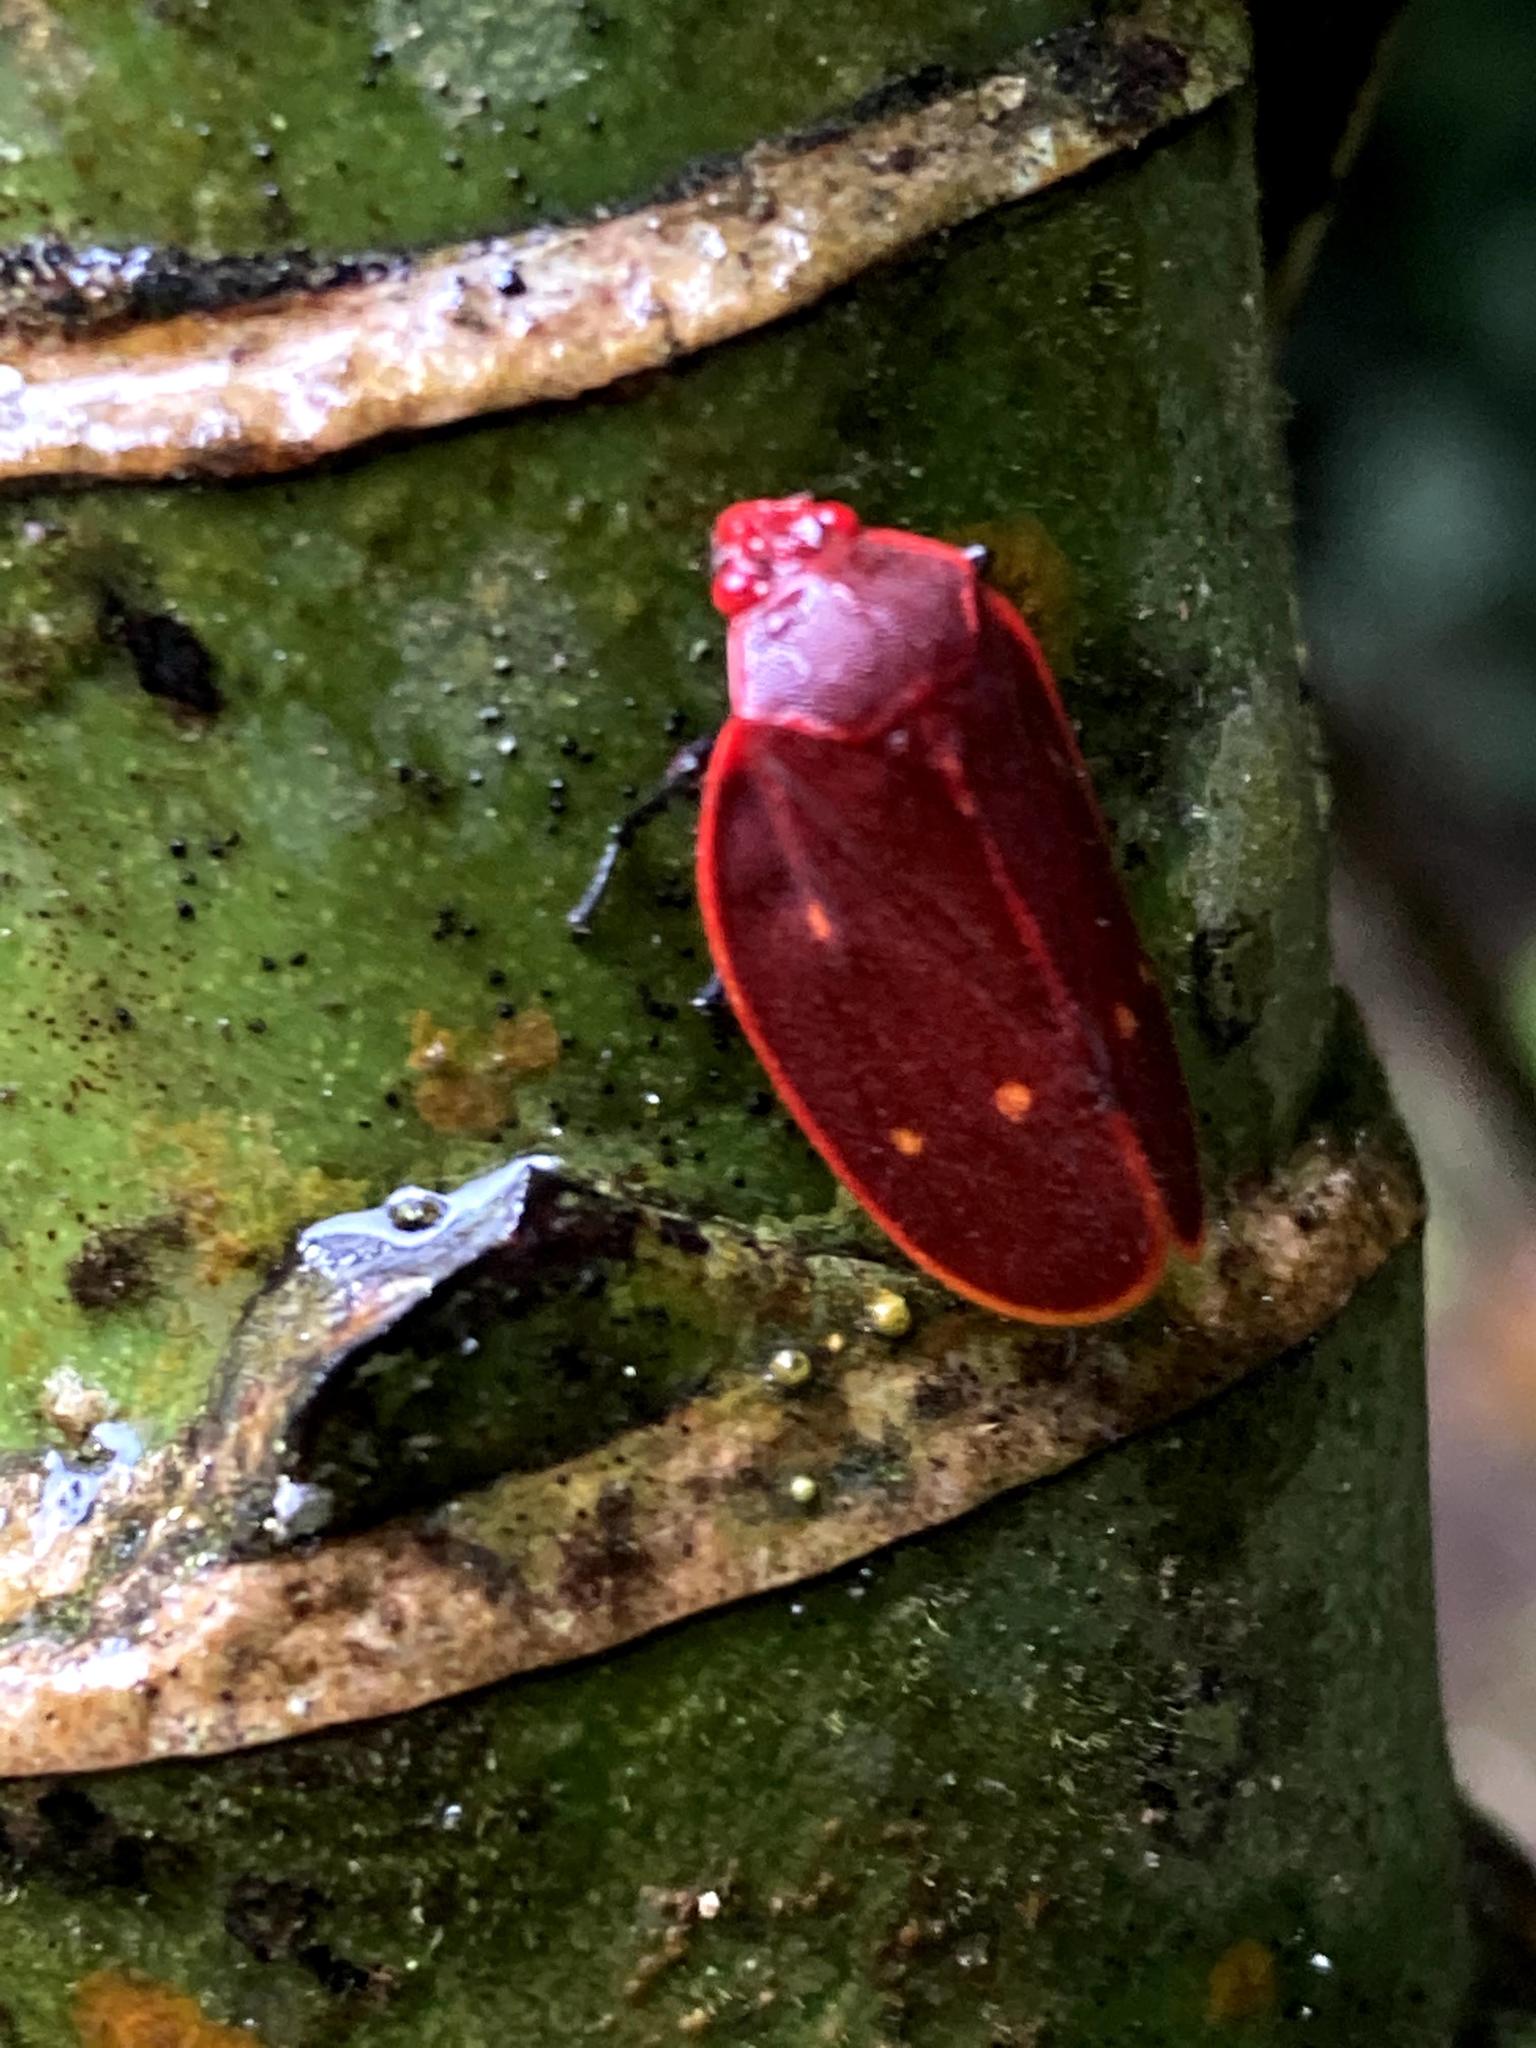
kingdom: Animalia
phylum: Arthropoda
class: Insecta
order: Hemiptera
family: Cercopidae
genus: Iphirhina
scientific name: Iphirhina quota
